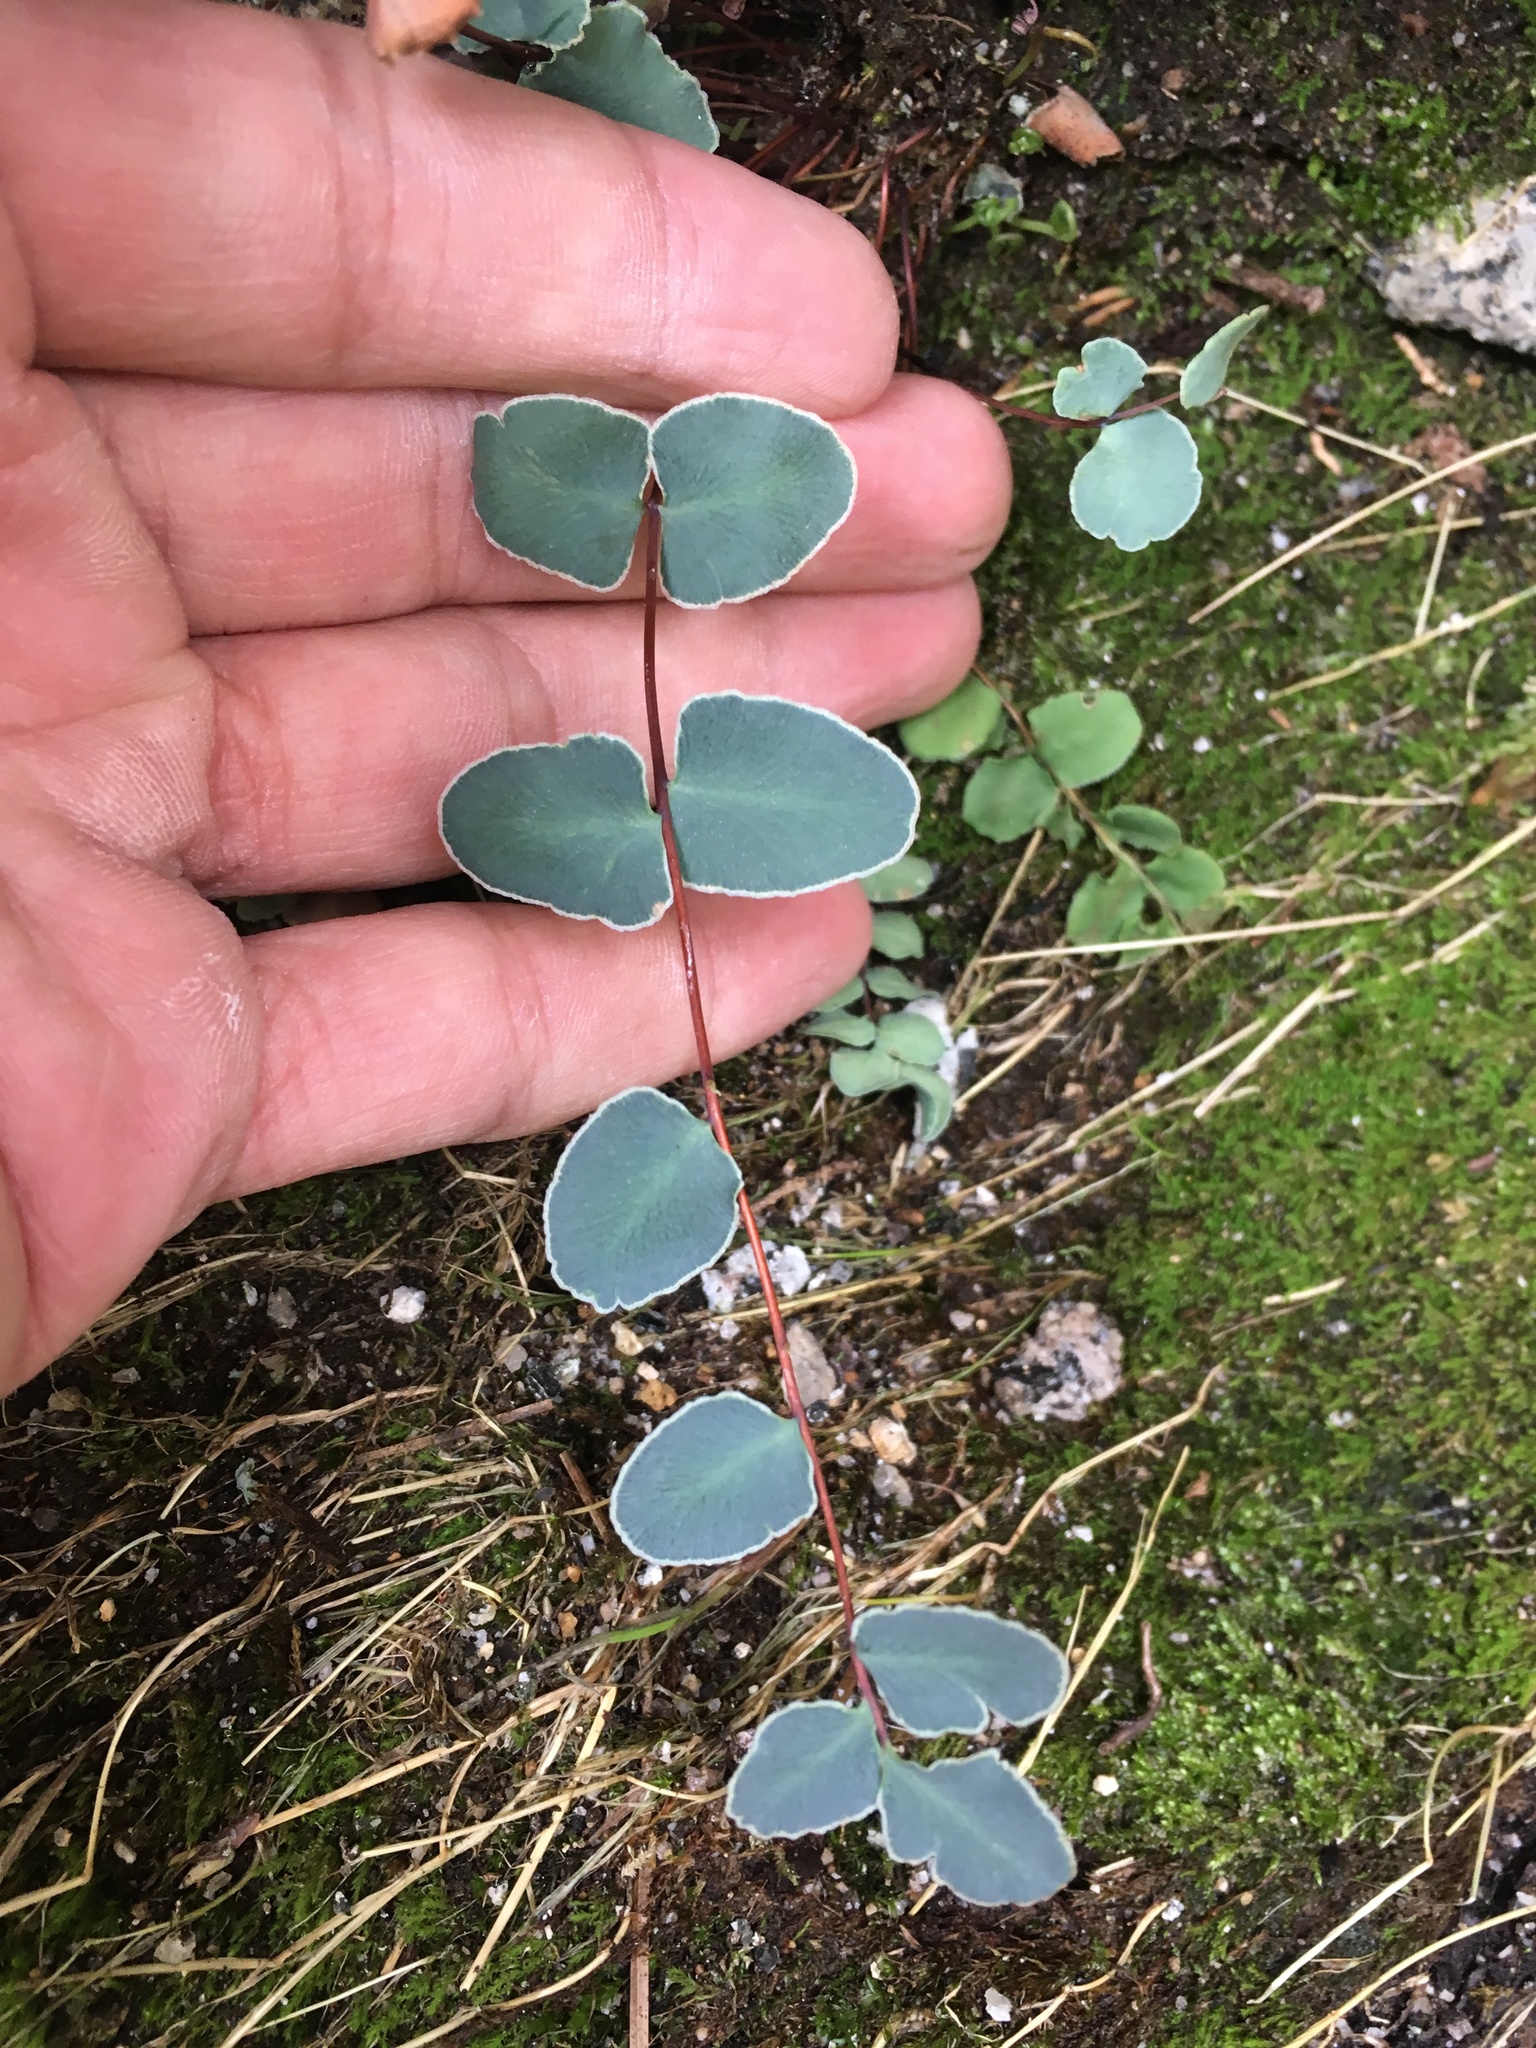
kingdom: Plantae
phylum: Tracheophyta
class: Polypodiopsida
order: Polypodiales
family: Pteridaceae
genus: Pellaea
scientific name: Pellaea bridgesii
